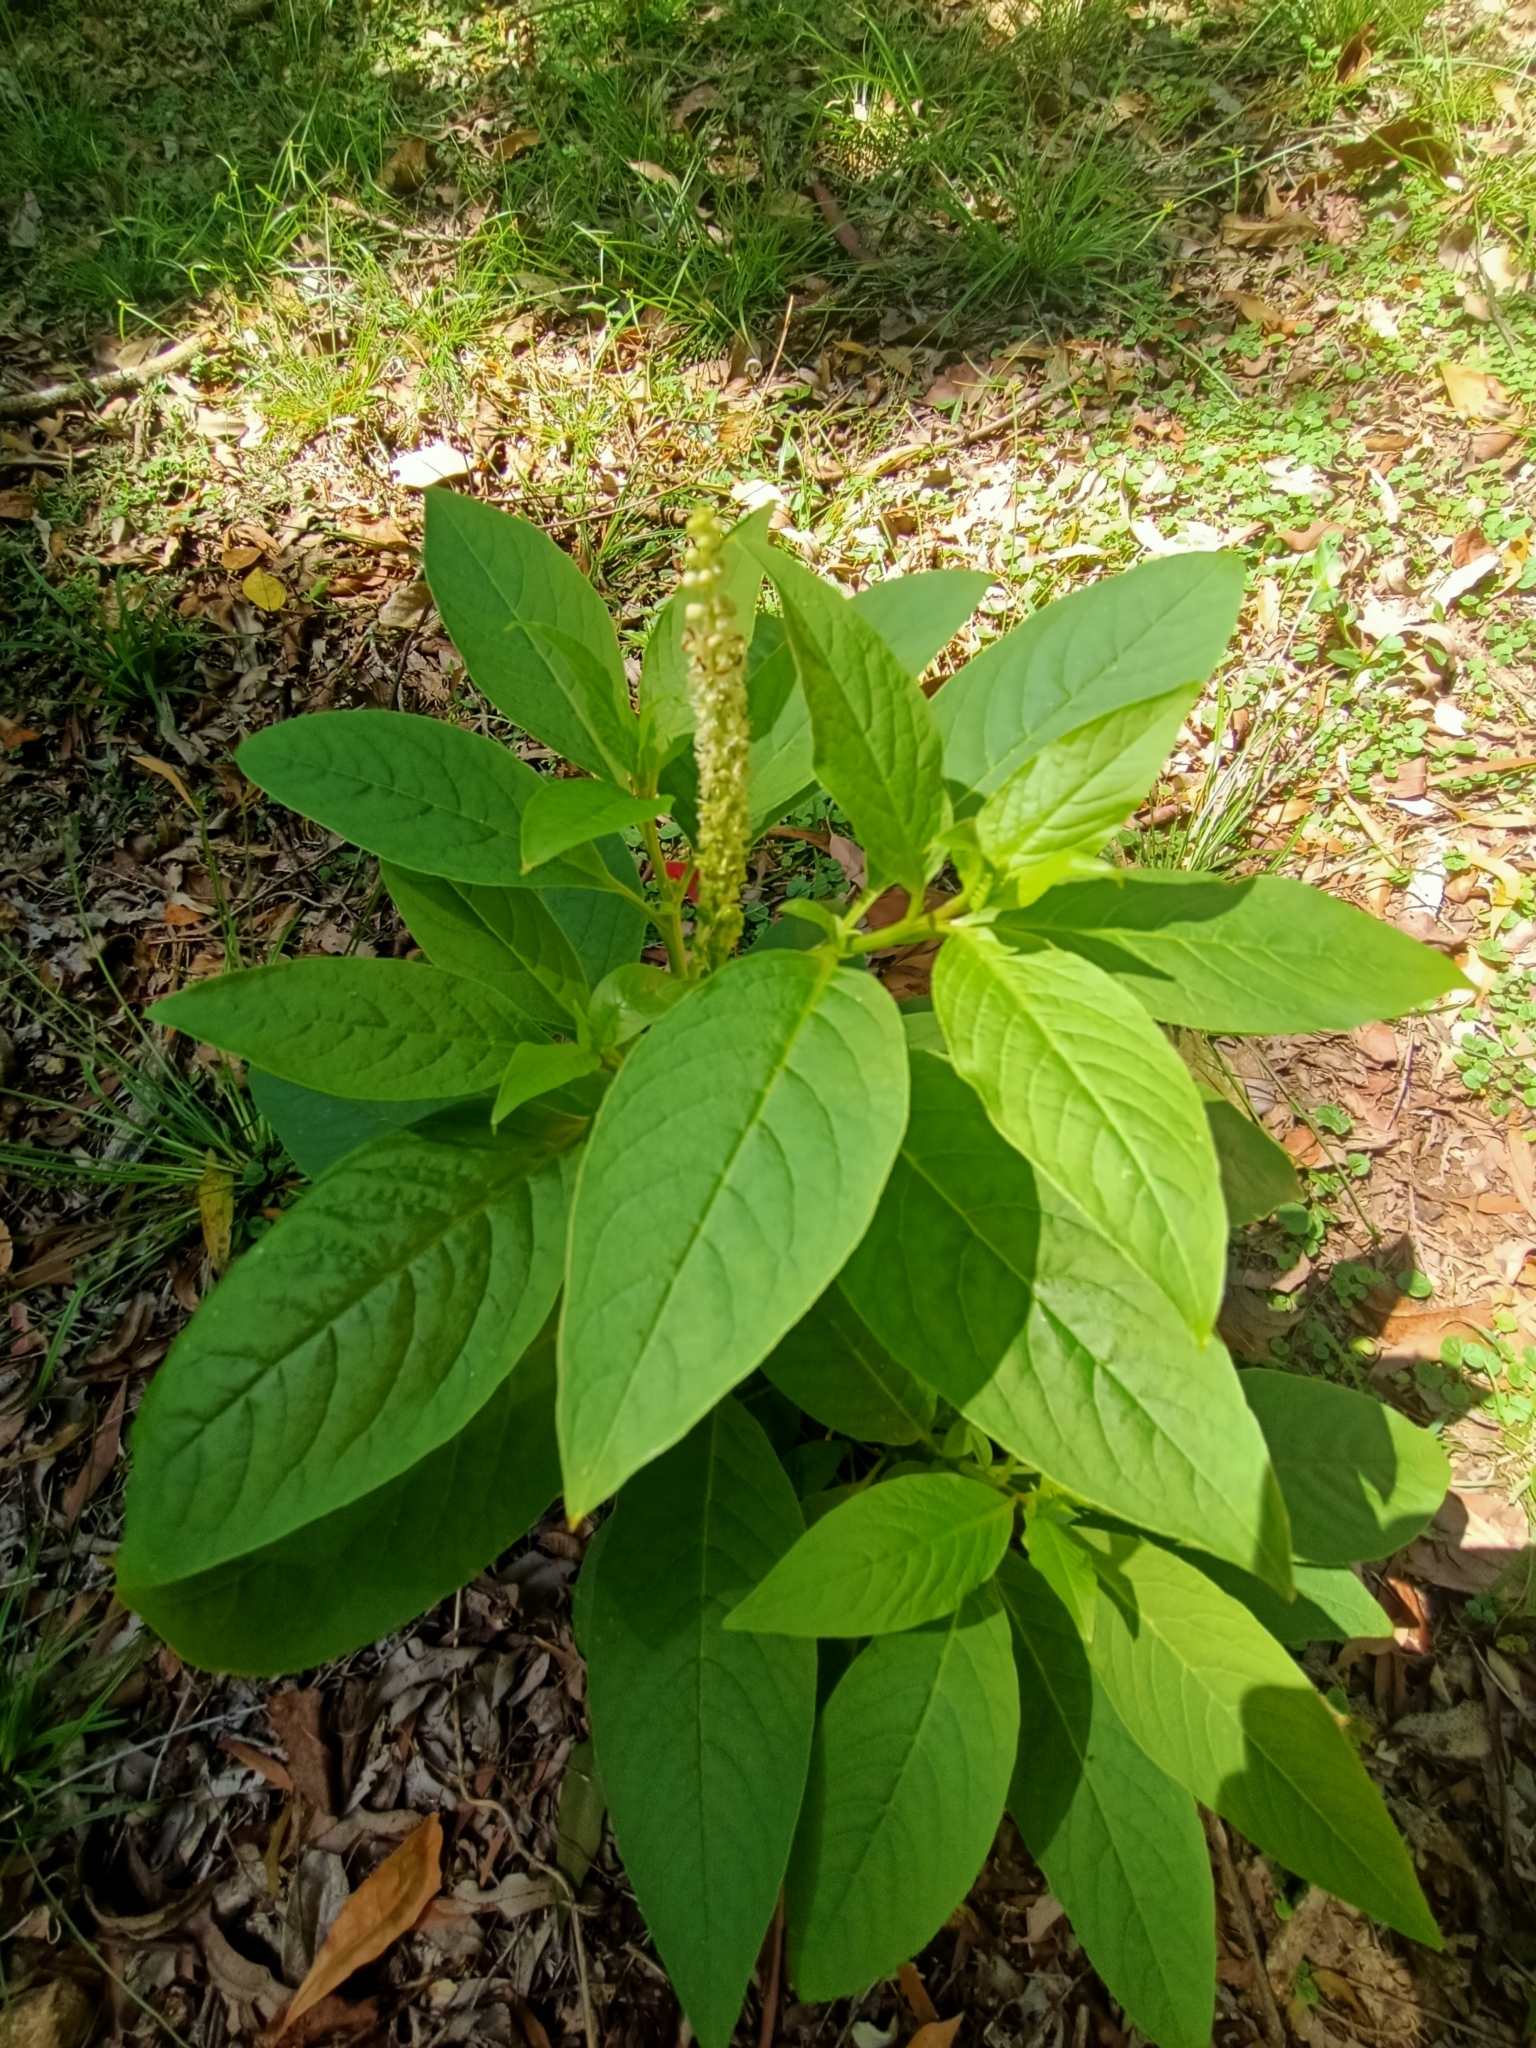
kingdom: Plantae
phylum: Tracheophyta
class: Magnoliopsida
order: Caryophyllales
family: Phytolaccaceae
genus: Phytolacca
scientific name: Phytolacca icosandra
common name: Button pokeweed
